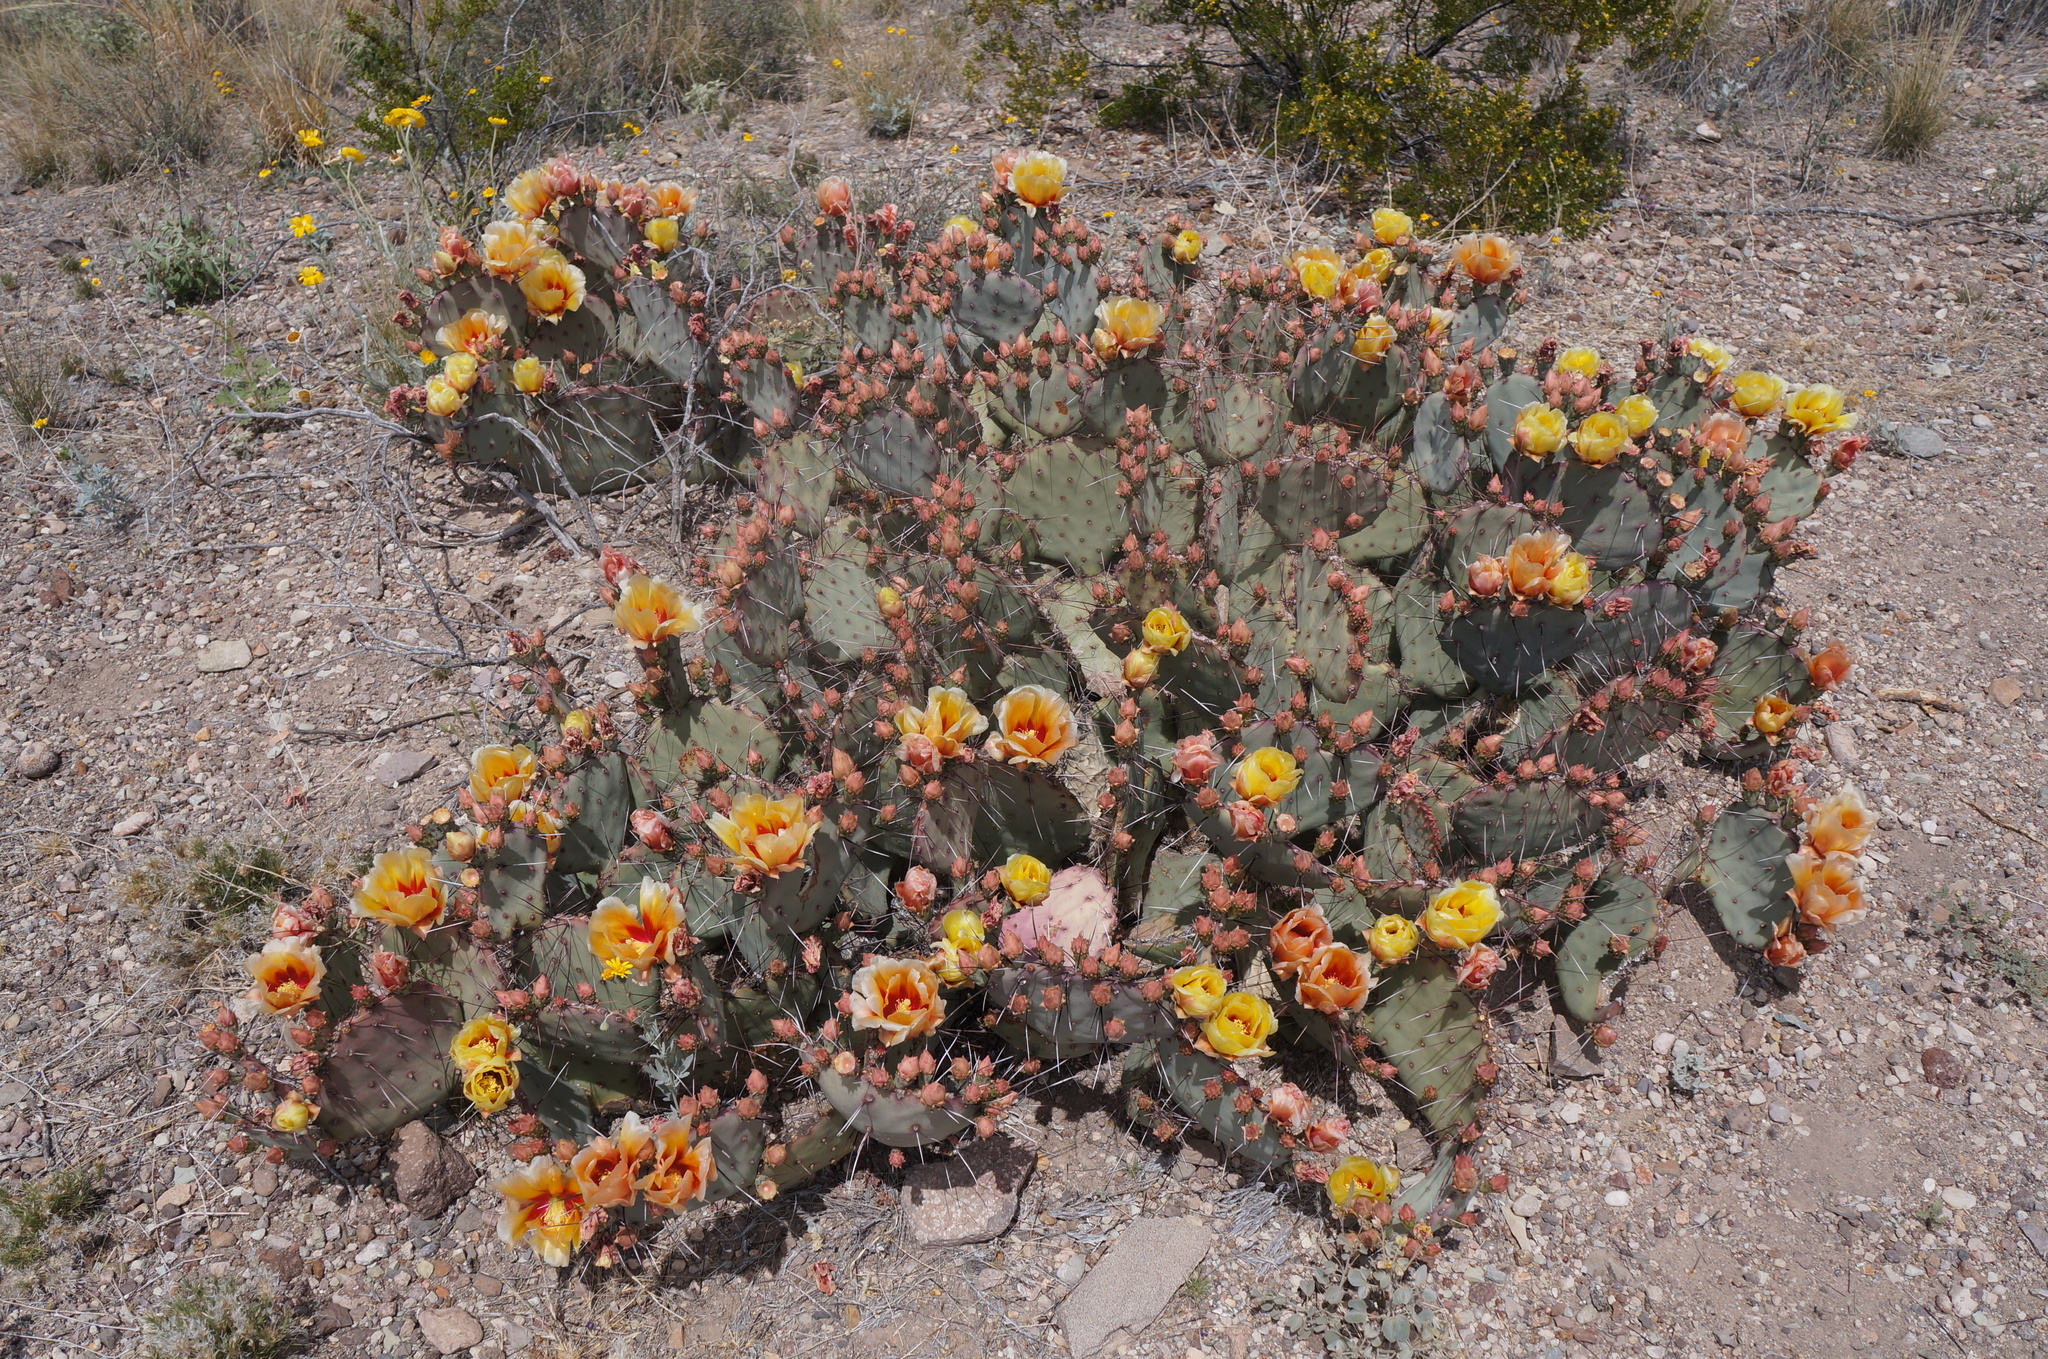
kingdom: Plantae
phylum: Tracheophyta
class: Magnoliopsida
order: Caryophyllales
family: Cactaceae
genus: Opuntia
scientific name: Opuntia phaeacantha
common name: New mexico prickly-pear
